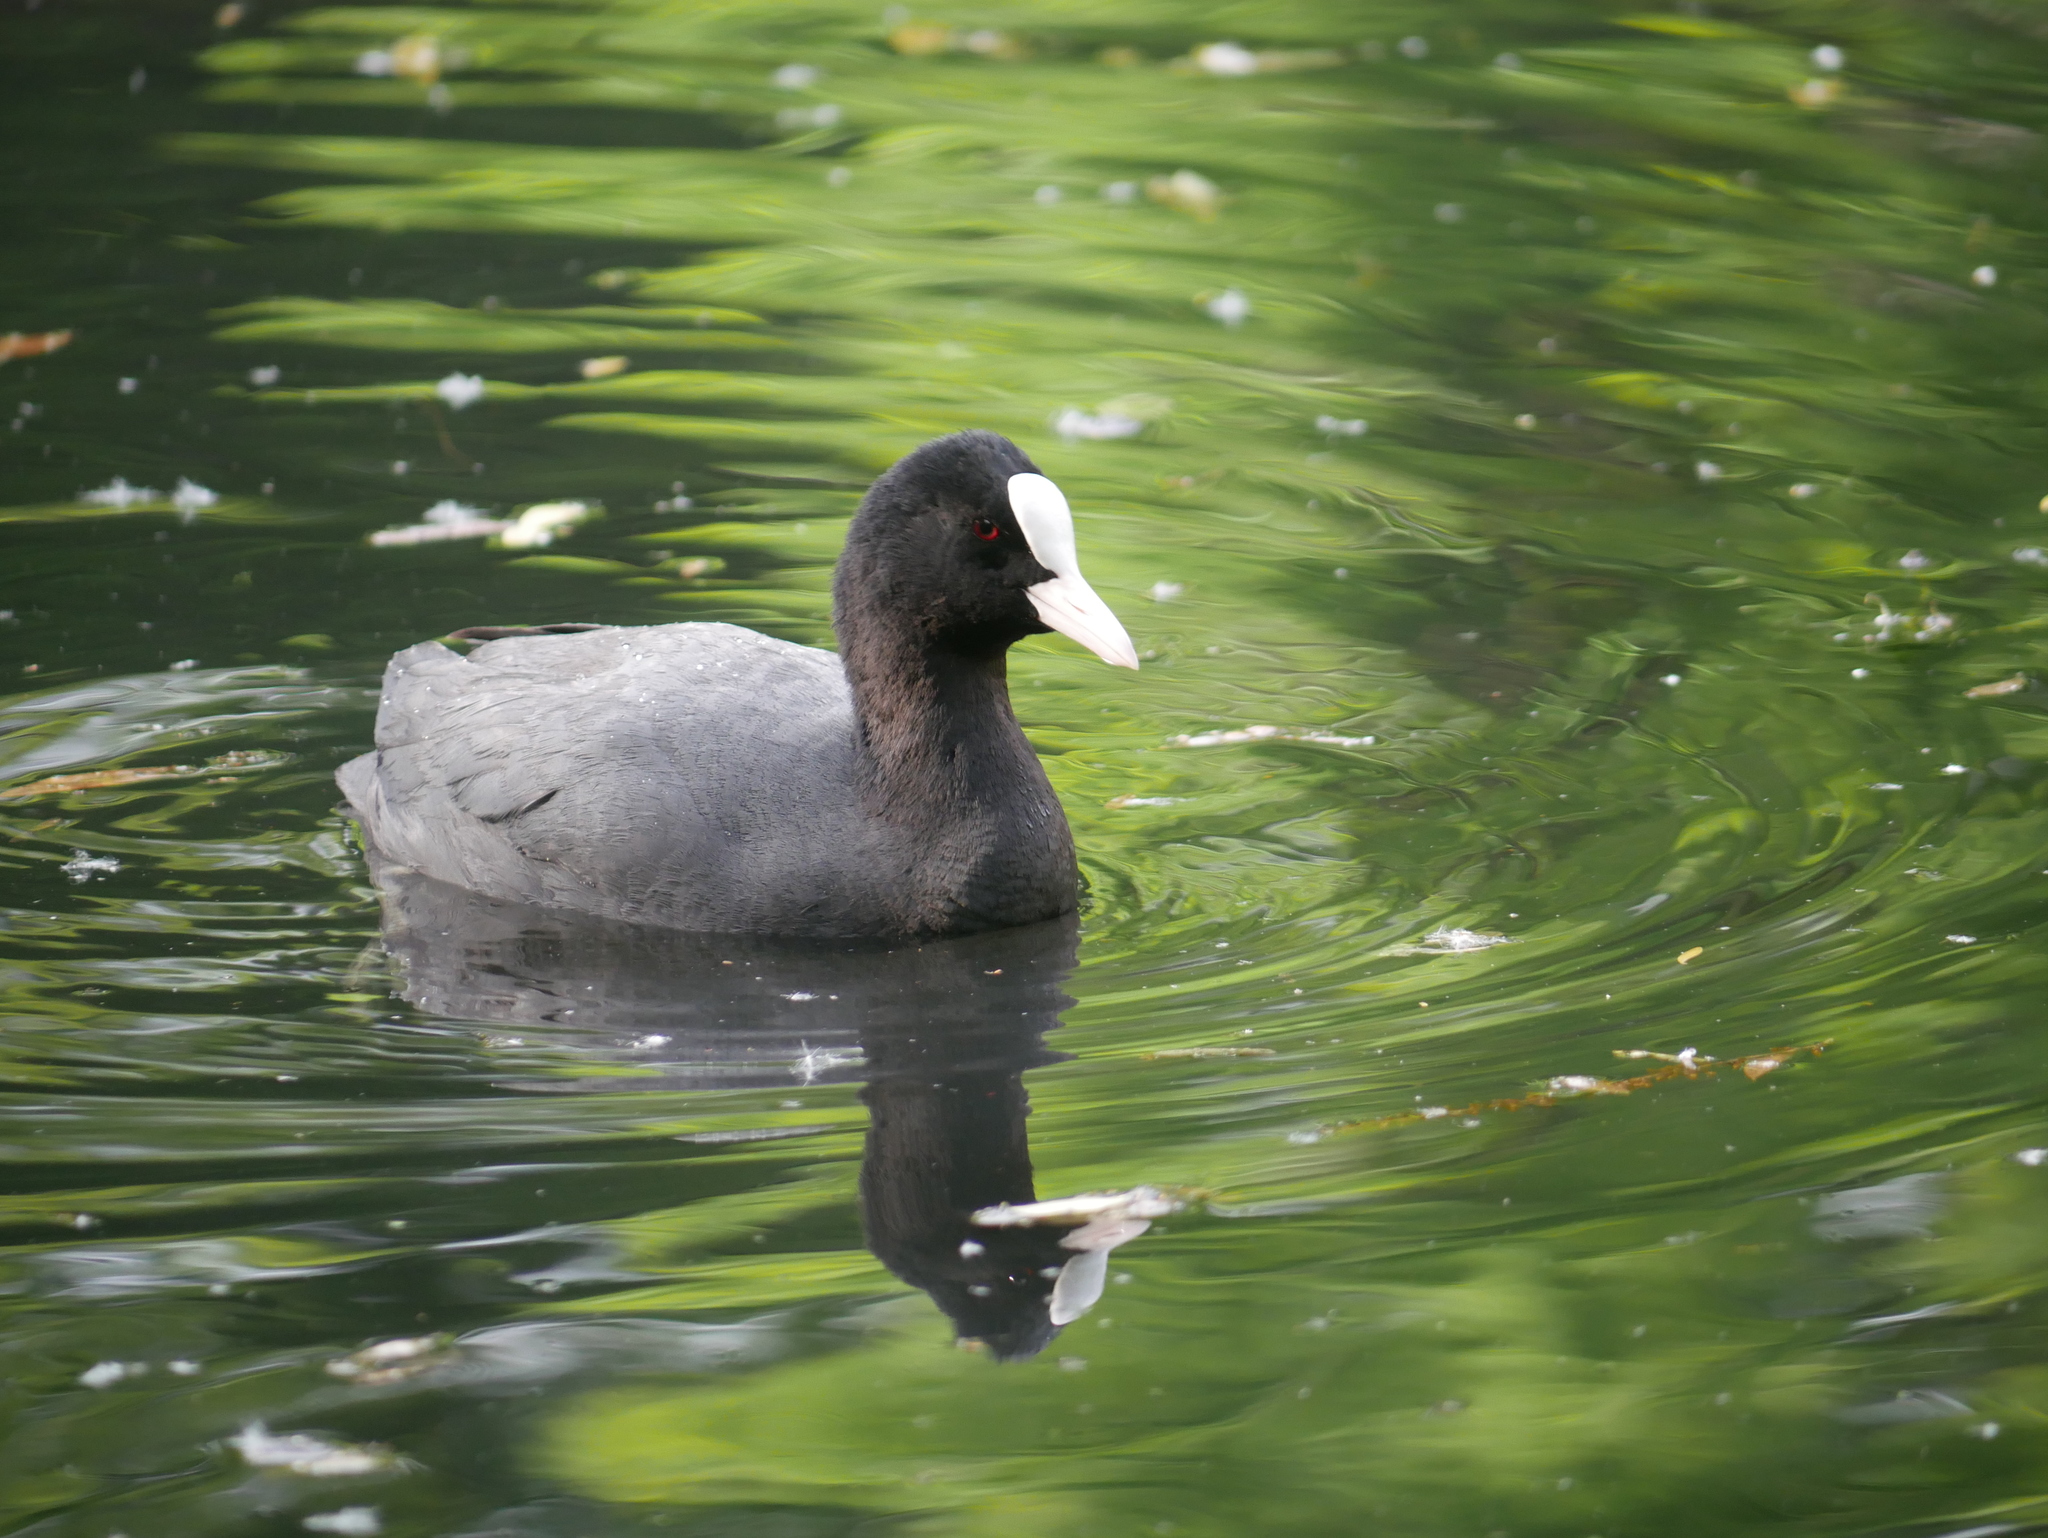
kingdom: Animalia
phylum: Chordata
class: Aves
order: Gruiformes
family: Rallidae
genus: Fulica
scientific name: Fulica atra
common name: Eurasian coot
